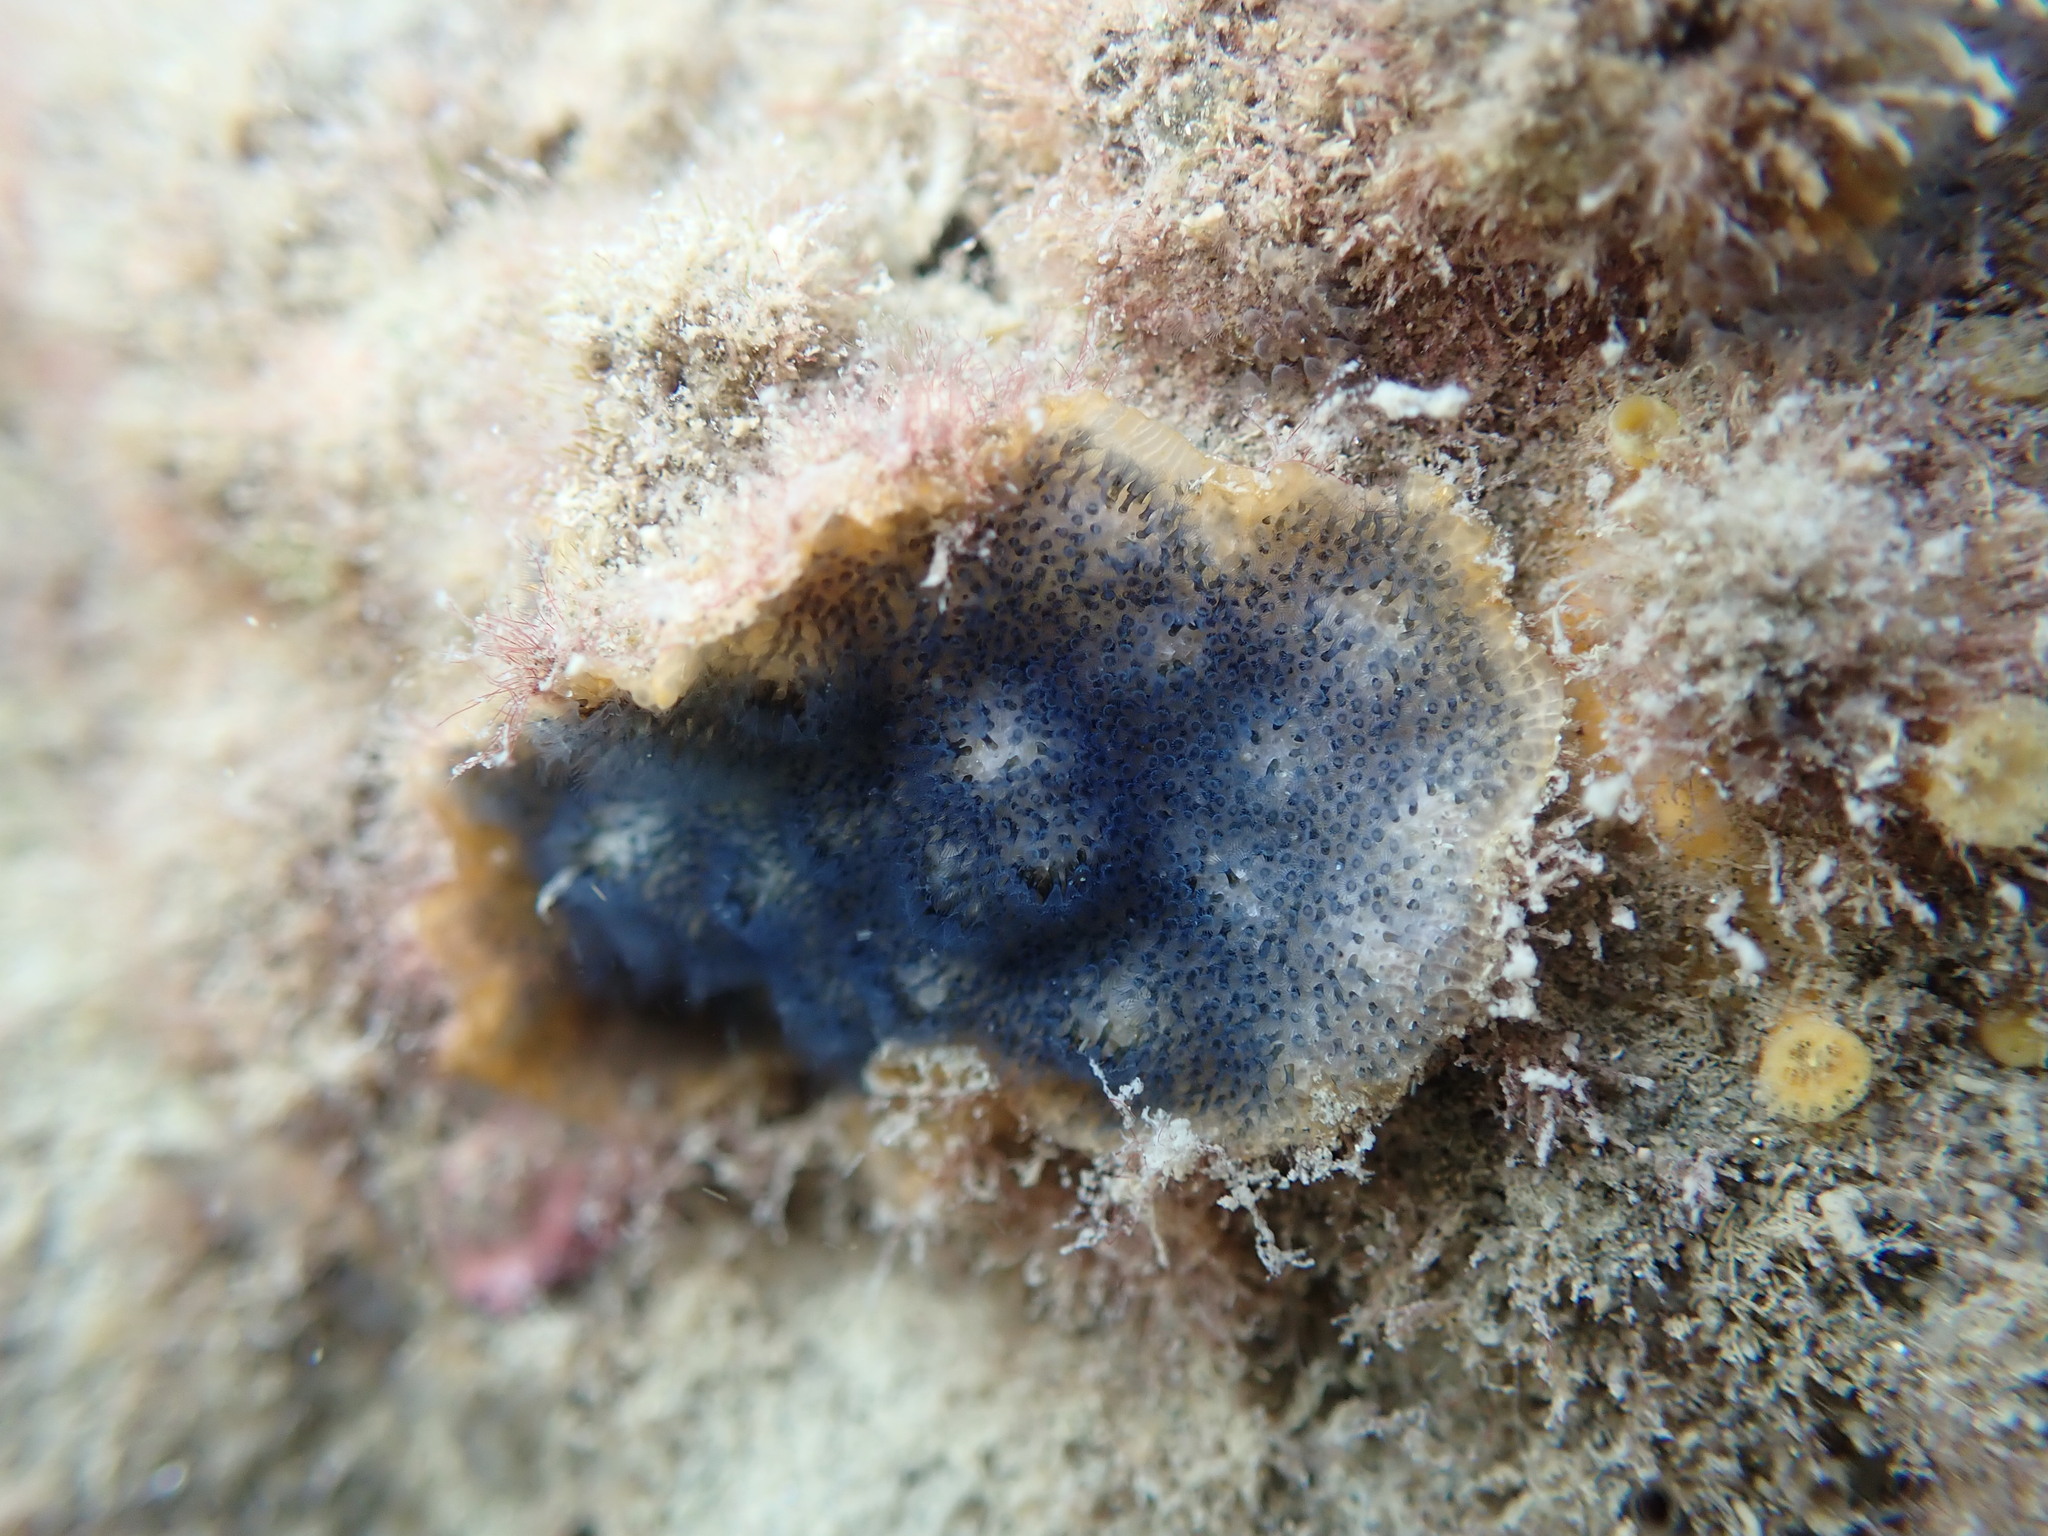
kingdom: Animalia
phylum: Bryozoa
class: Gymnolaemata
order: Cheilostomatida
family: Celleporidae
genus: Celleporaria
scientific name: Celleporaria nodulosa
